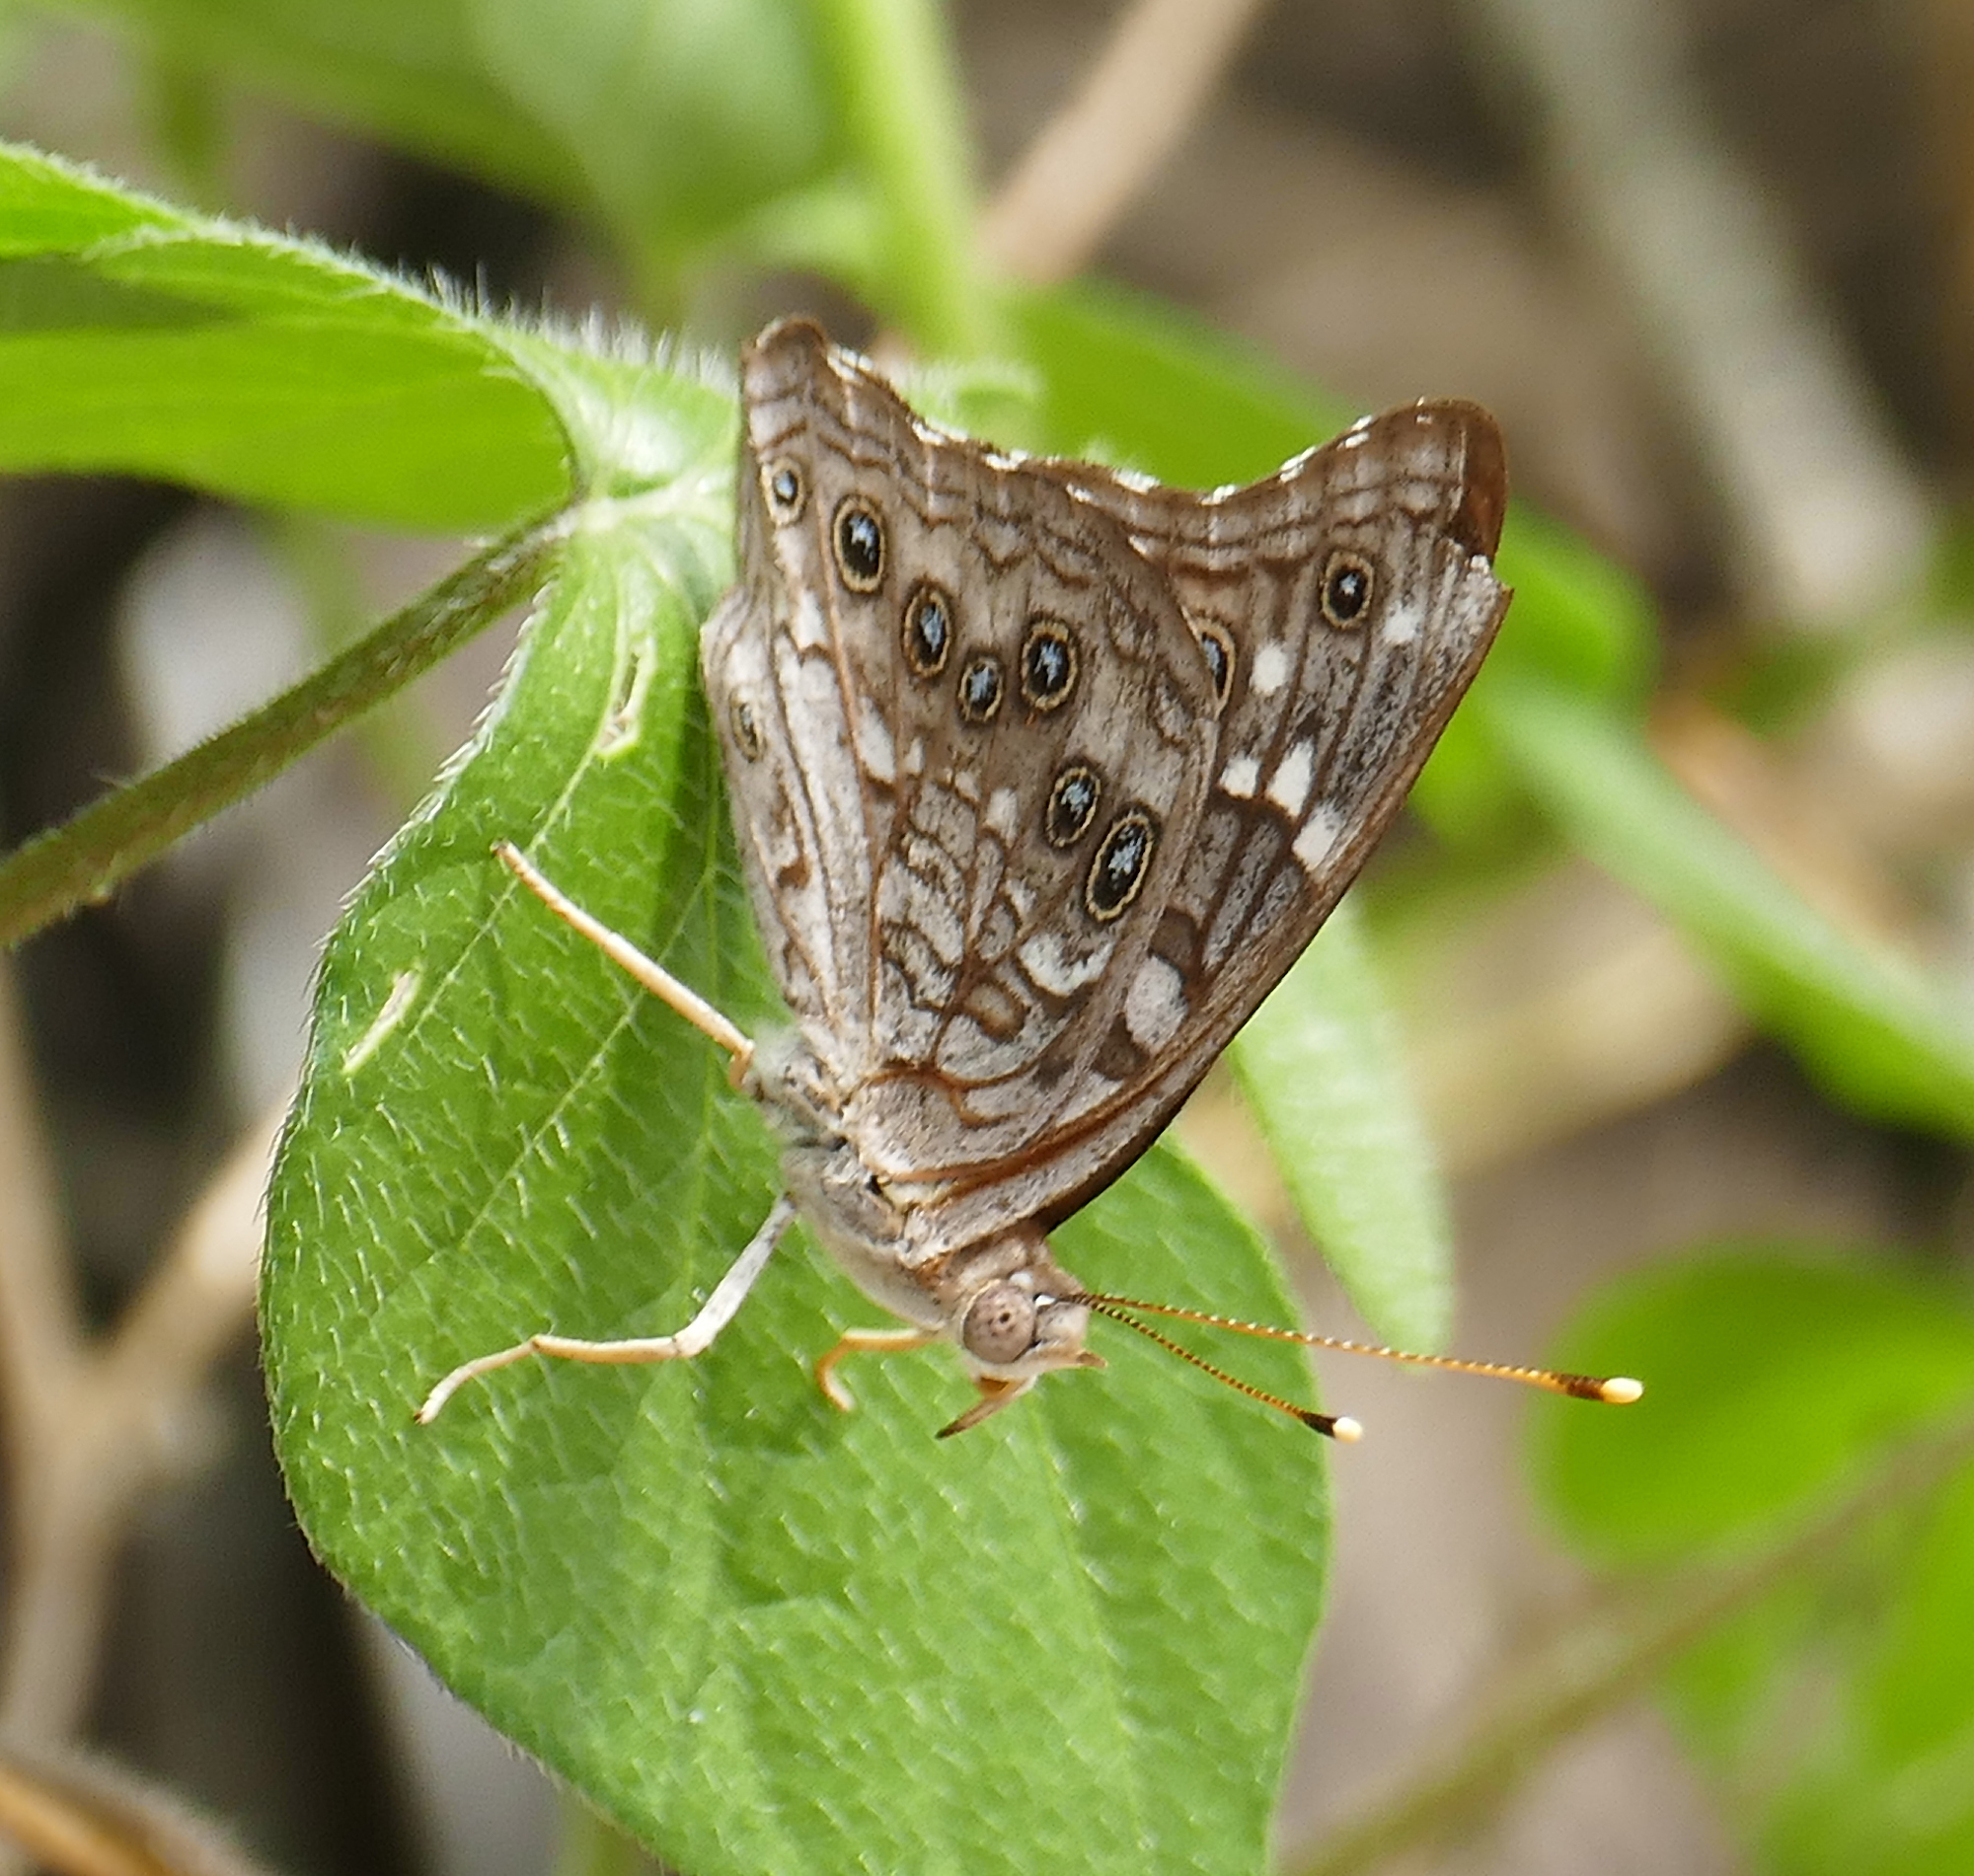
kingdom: Animalia
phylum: Arthropoda
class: Insecta
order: Lepidoptera
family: Nymphalidae
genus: Asterocampa
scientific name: Asterocampa leilia
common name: Empress leilia
